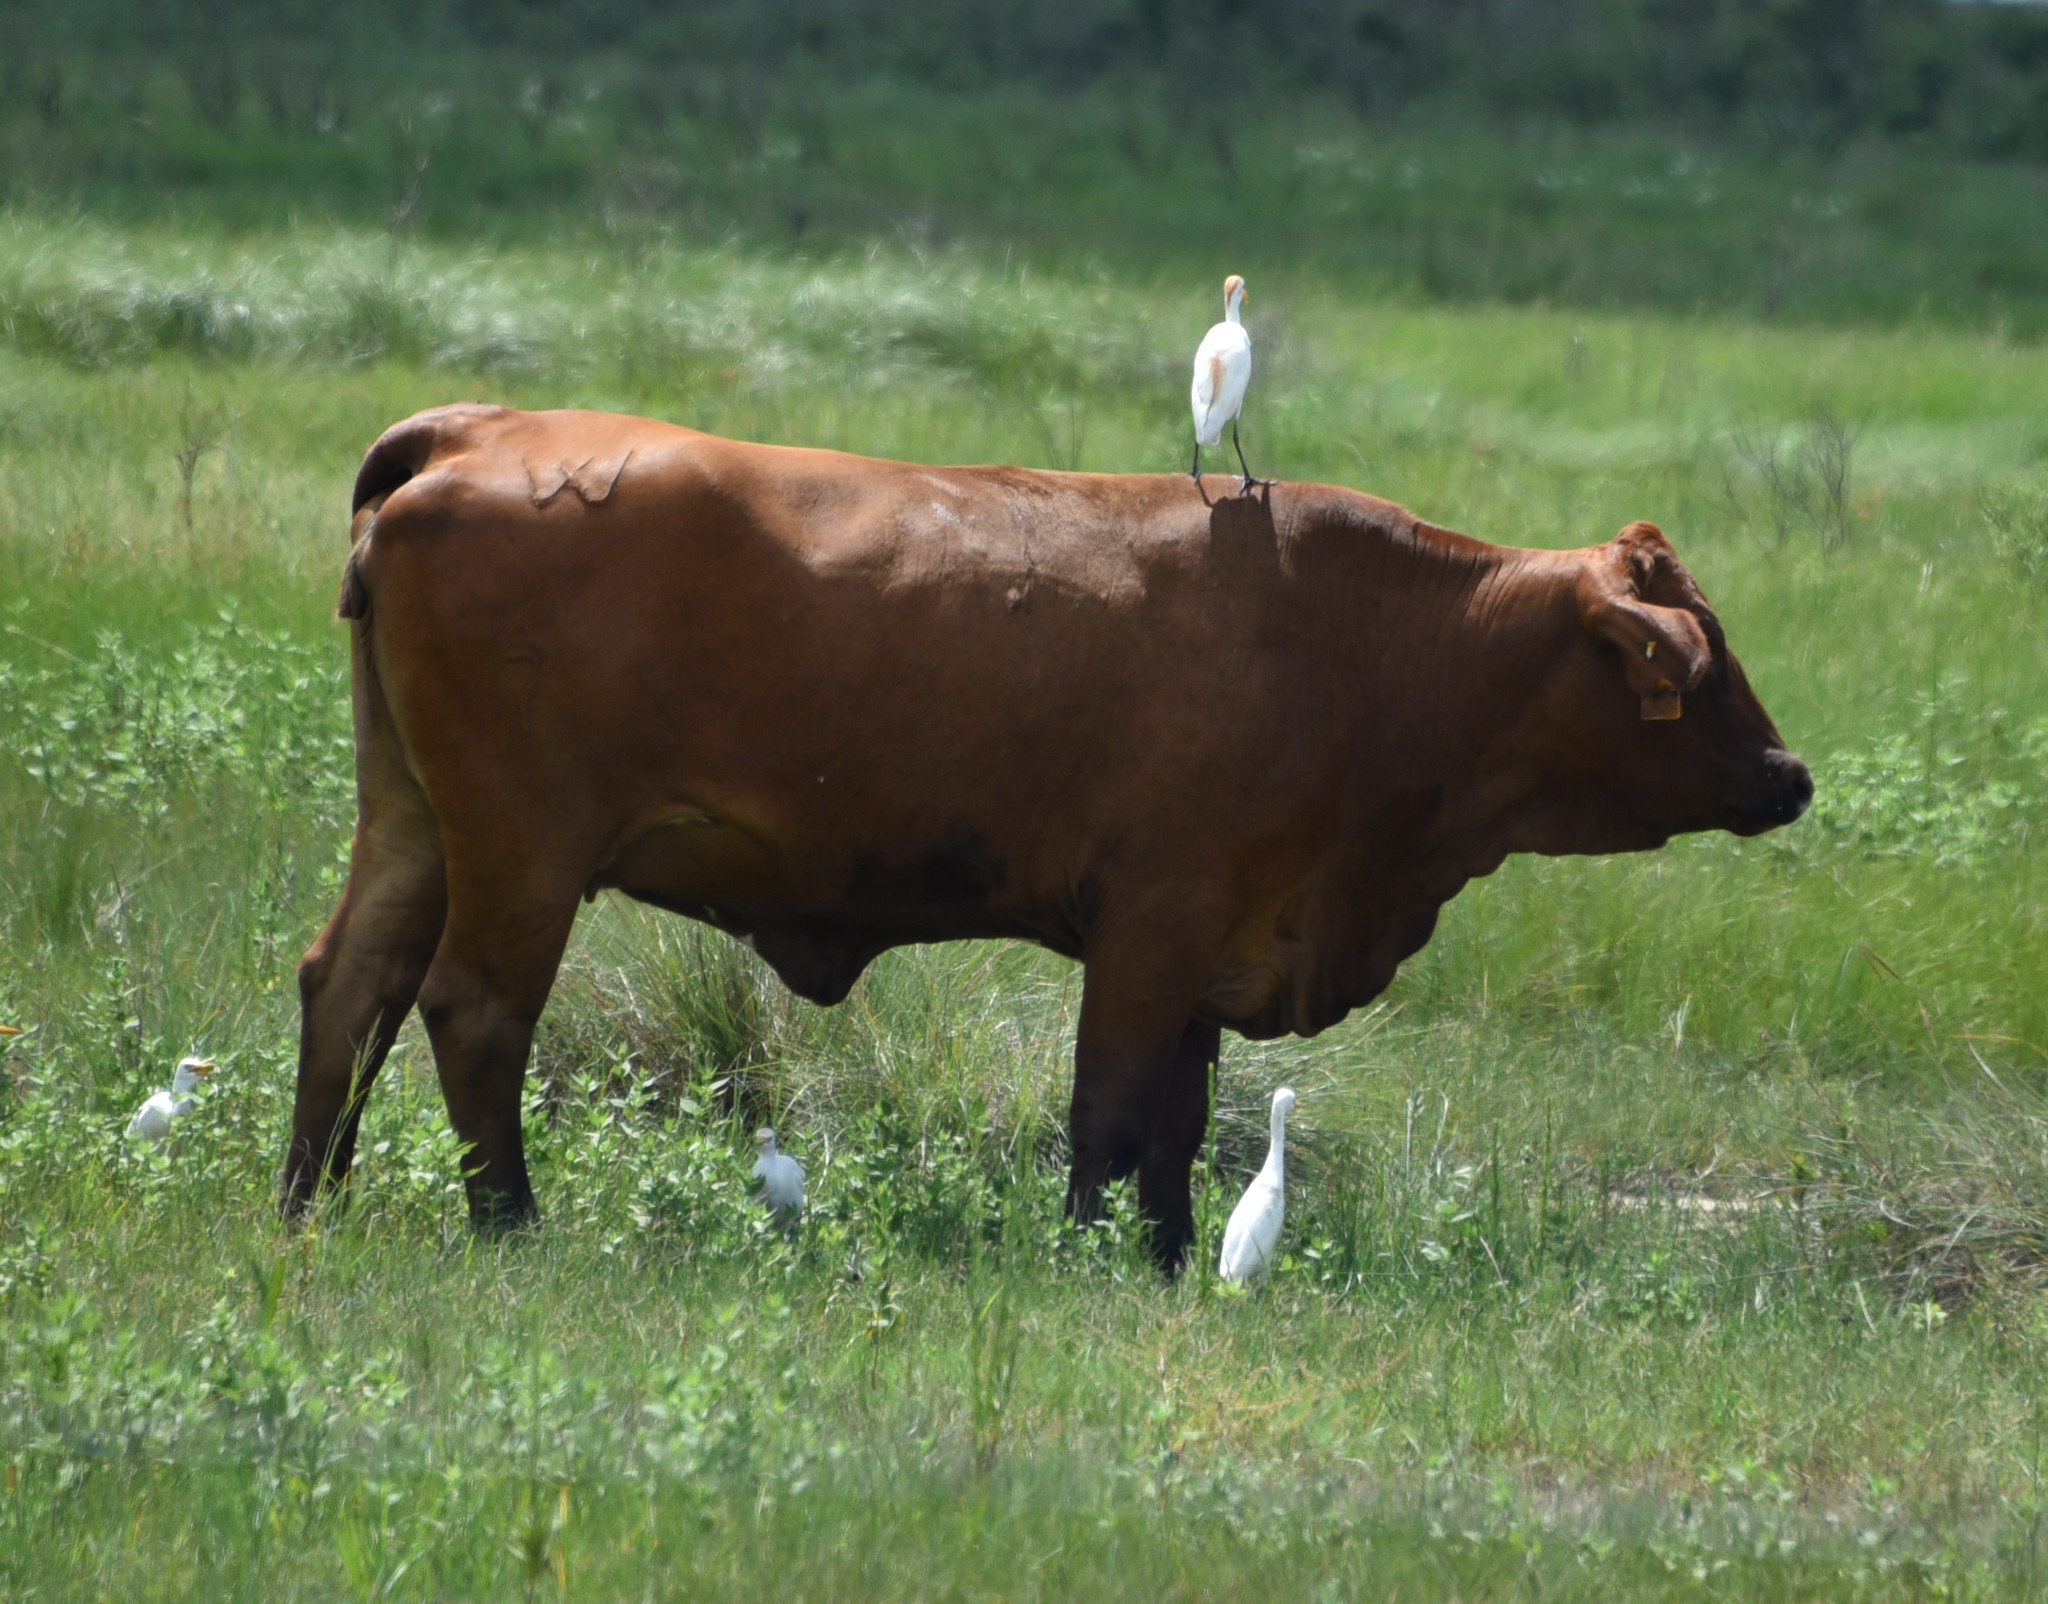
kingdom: Animalia
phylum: Chordata
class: Aves
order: Pelecaniformes
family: Ardeidae
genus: Bubulcus
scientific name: Bubulcus ibis
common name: Cattle egret
